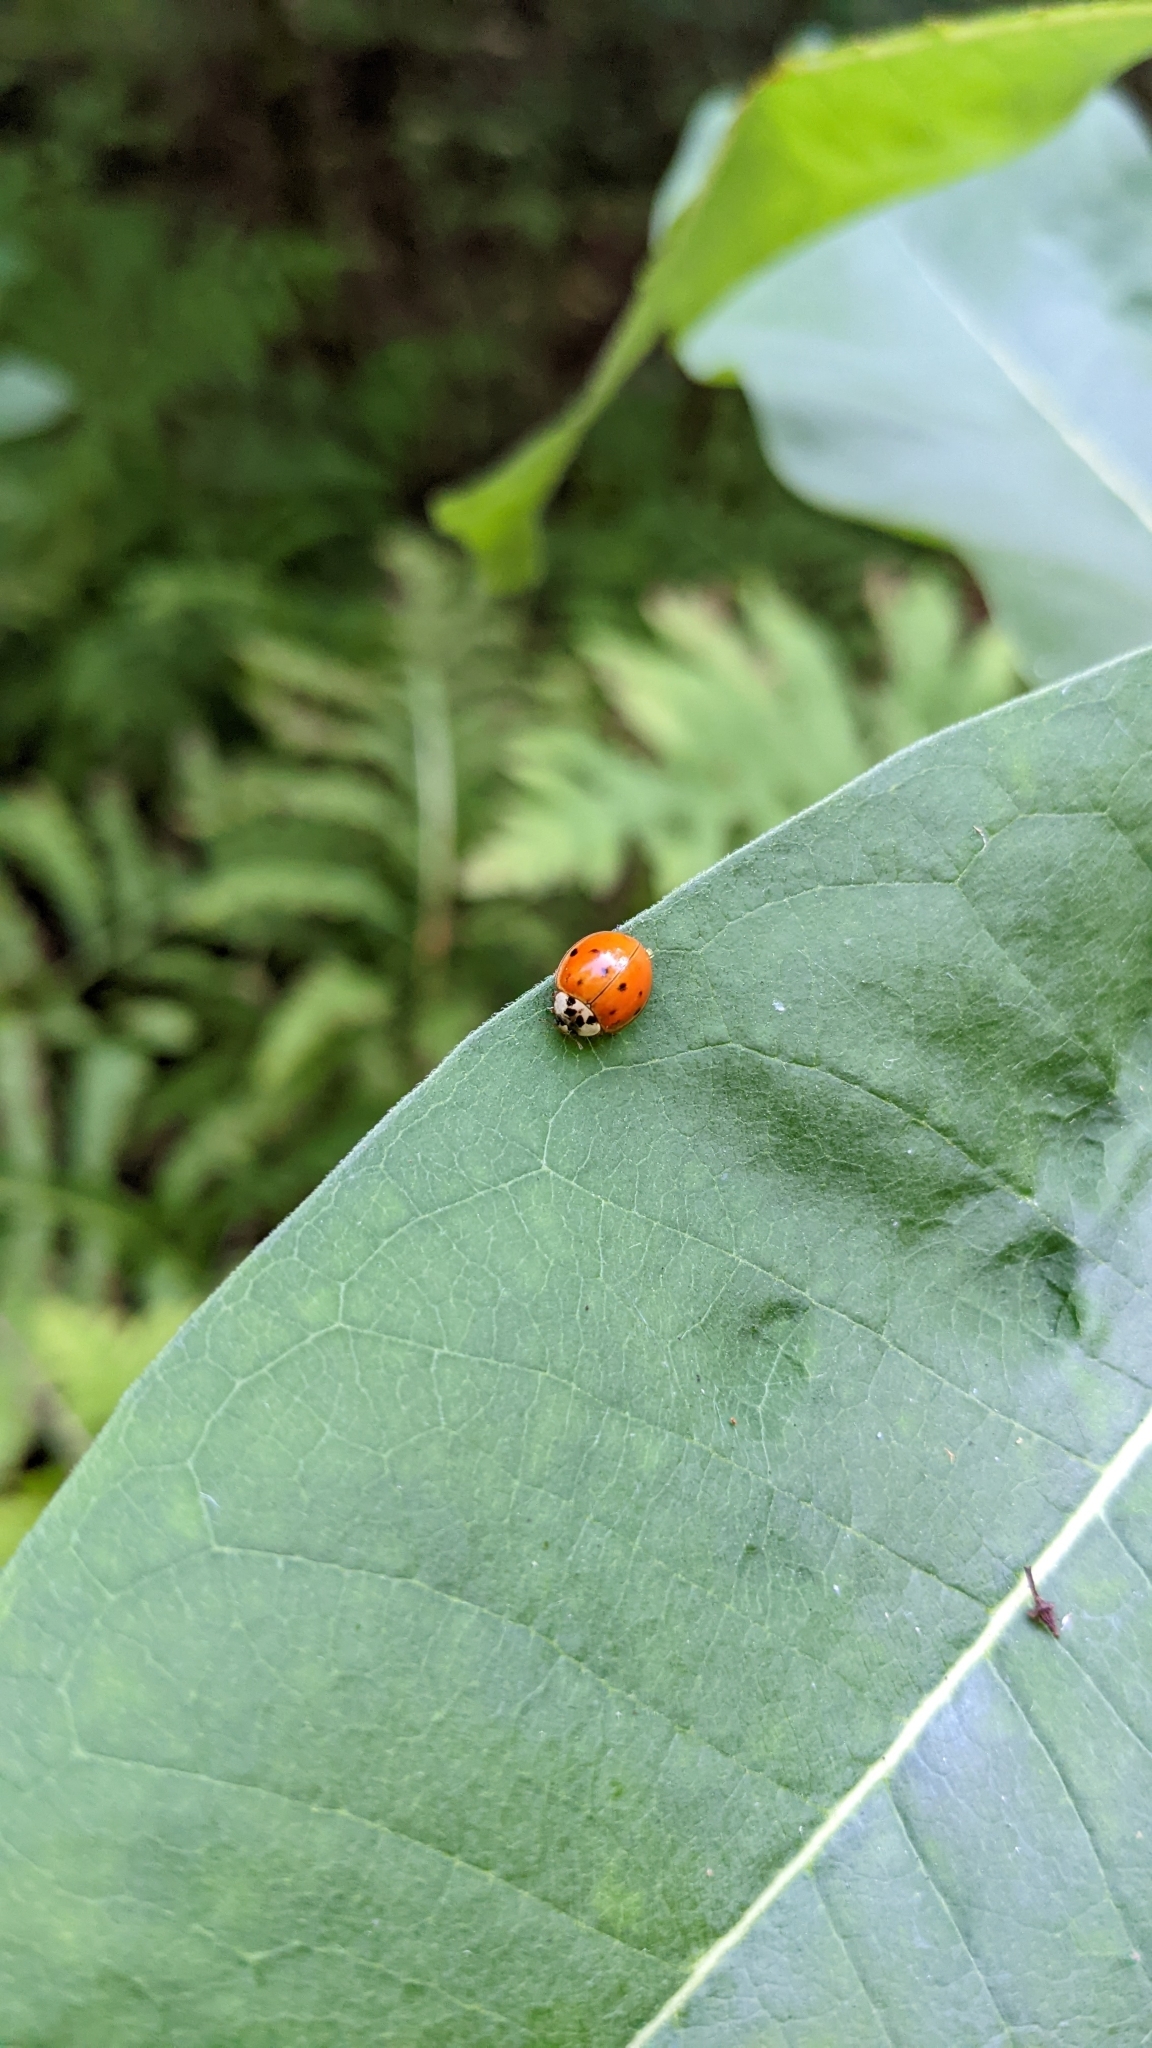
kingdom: Animalia
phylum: Arthropoda
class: Insecta
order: Coleoptera
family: Coccinellidae
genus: Harmonia
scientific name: Harmonia axyridis
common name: Harlequin ladybird
